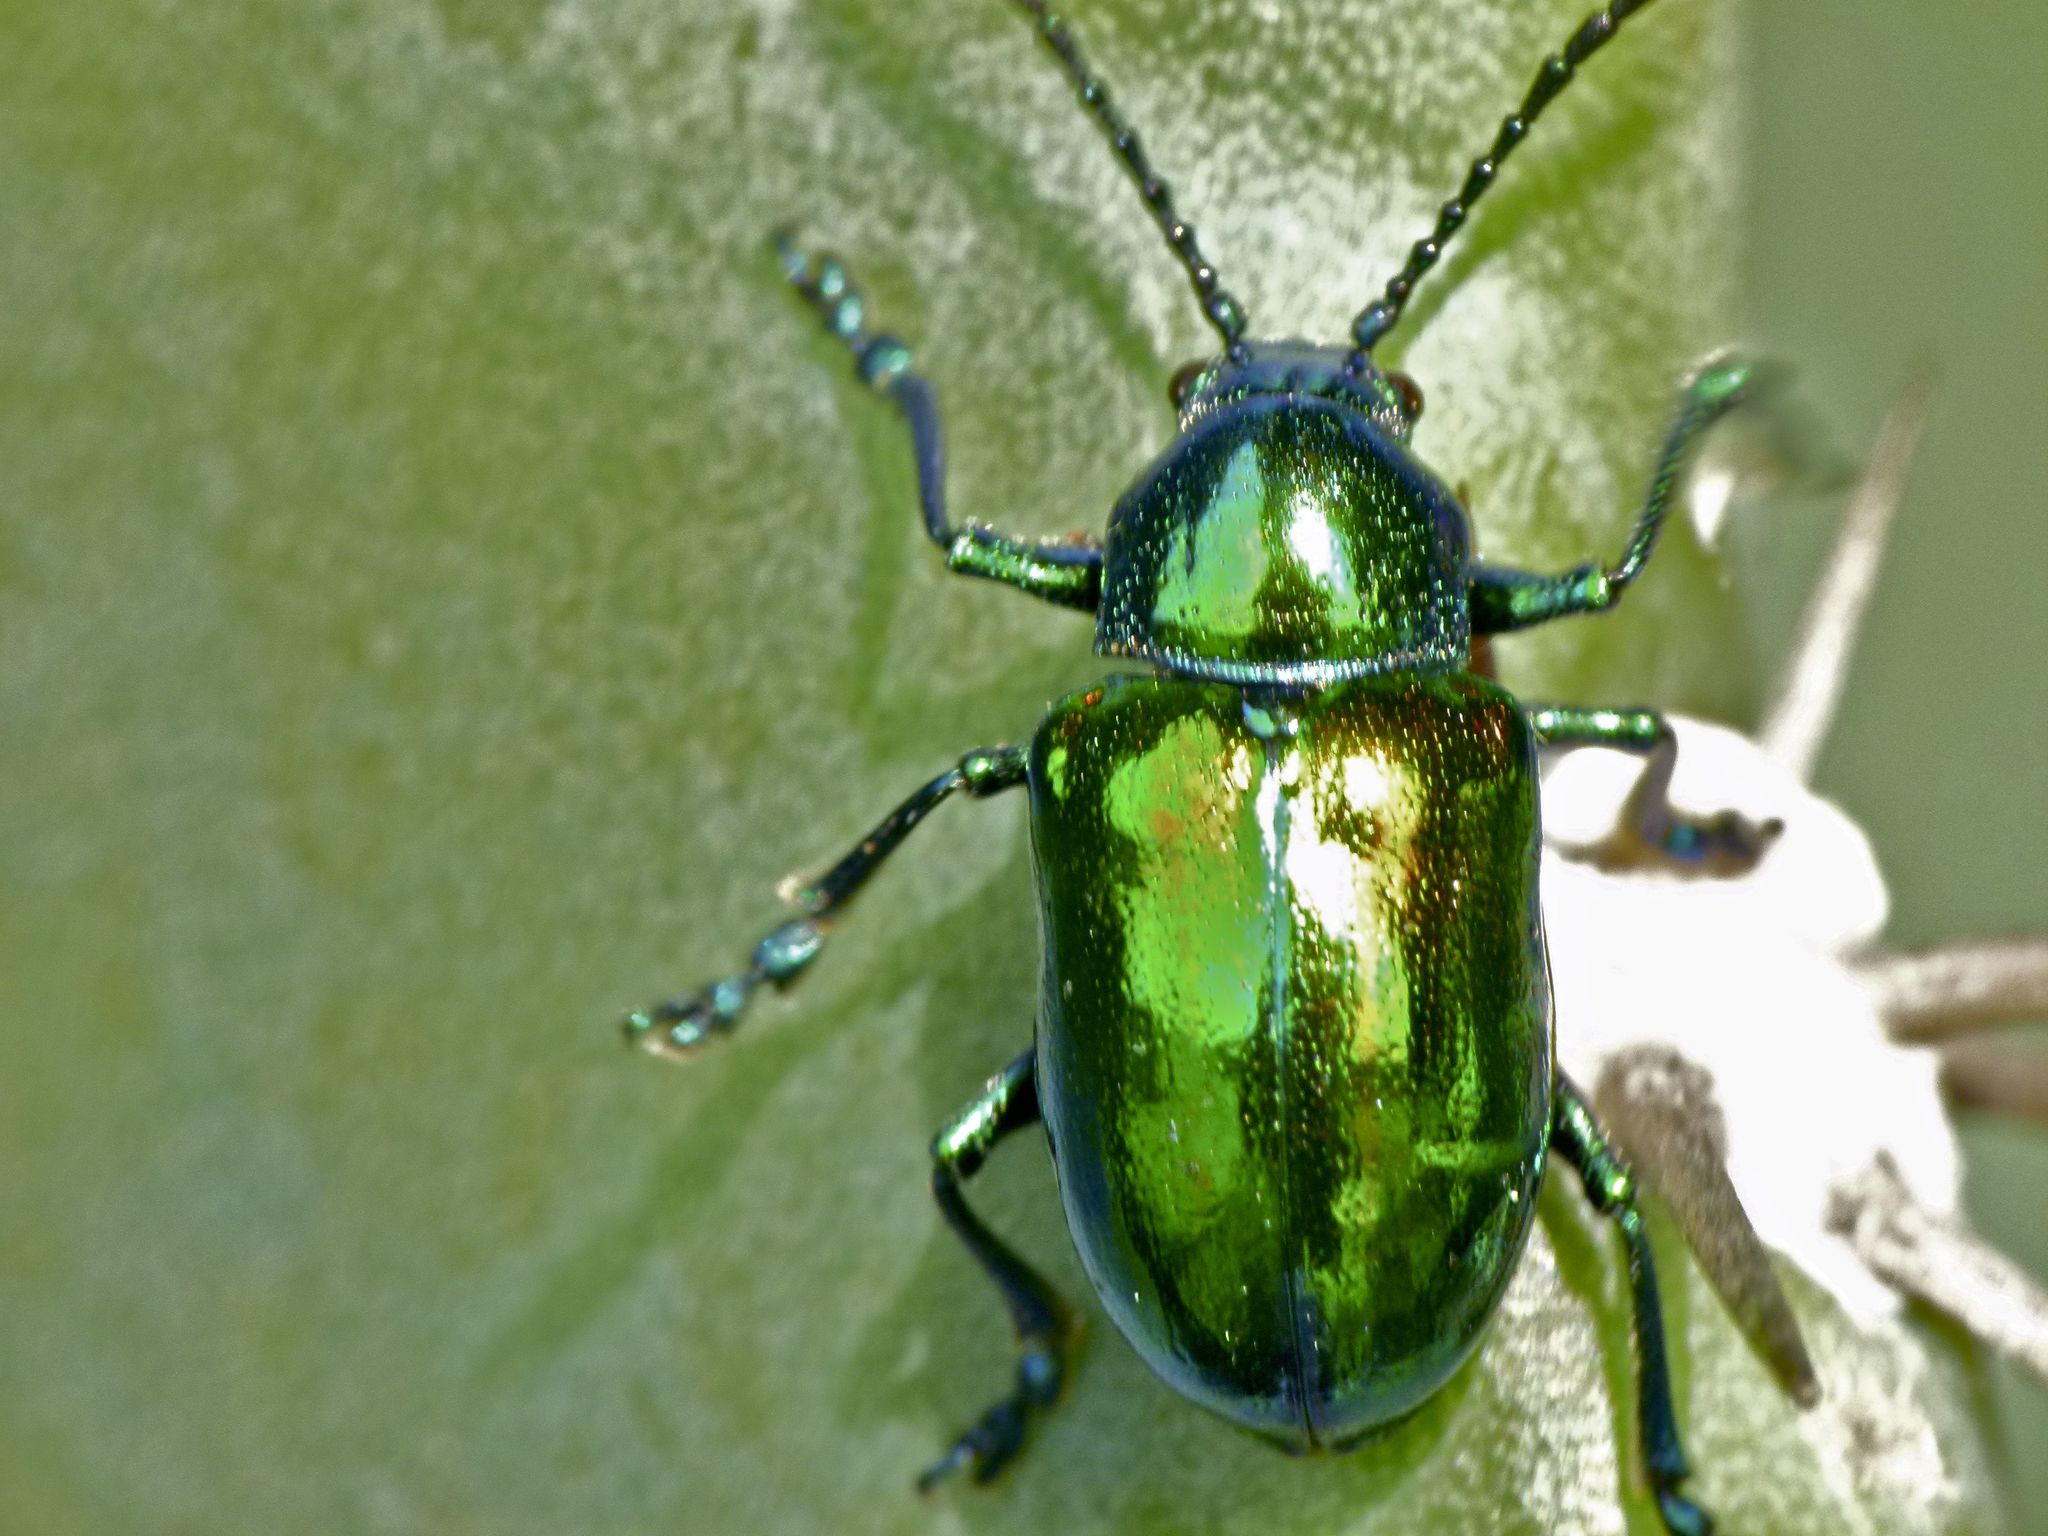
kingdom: Animalia
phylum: Arthropoda
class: Insecta
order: Coleoptera
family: Chrysomelidae
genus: Chrysochus
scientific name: Chrysochus auratus
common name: Dogbane leaf beetle
